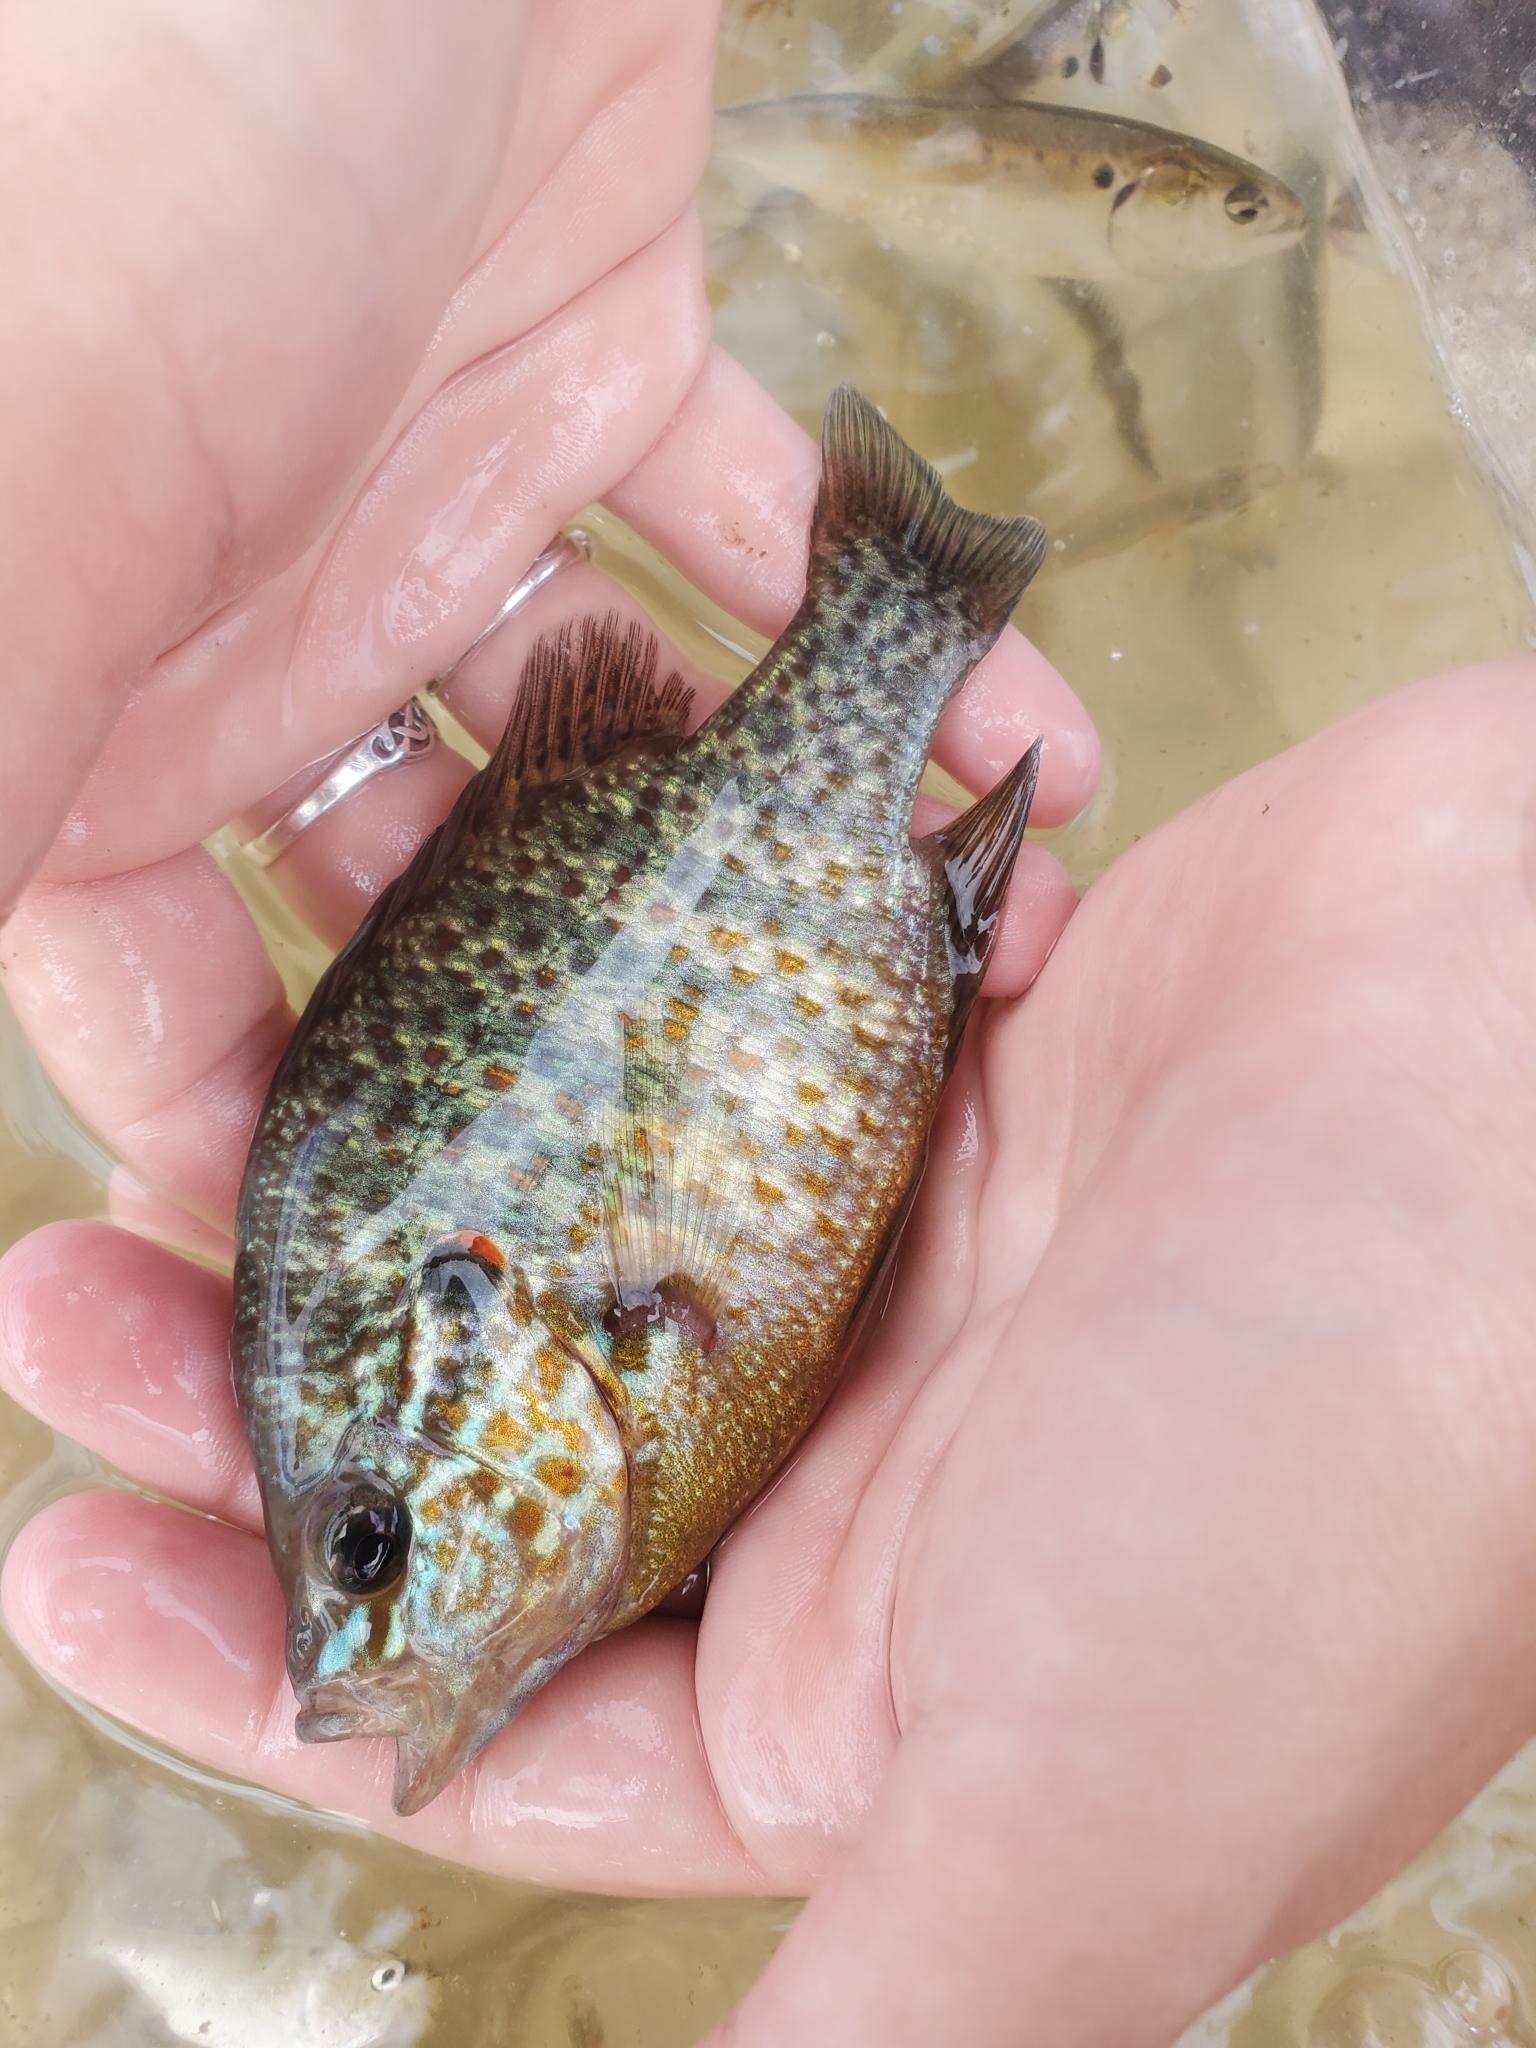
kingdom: Animalia
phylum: Chordata
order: Perciformes
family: Centrarchidae
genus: Lepomis
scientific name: Lepomis gibbosus
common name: Pumpkinseed
